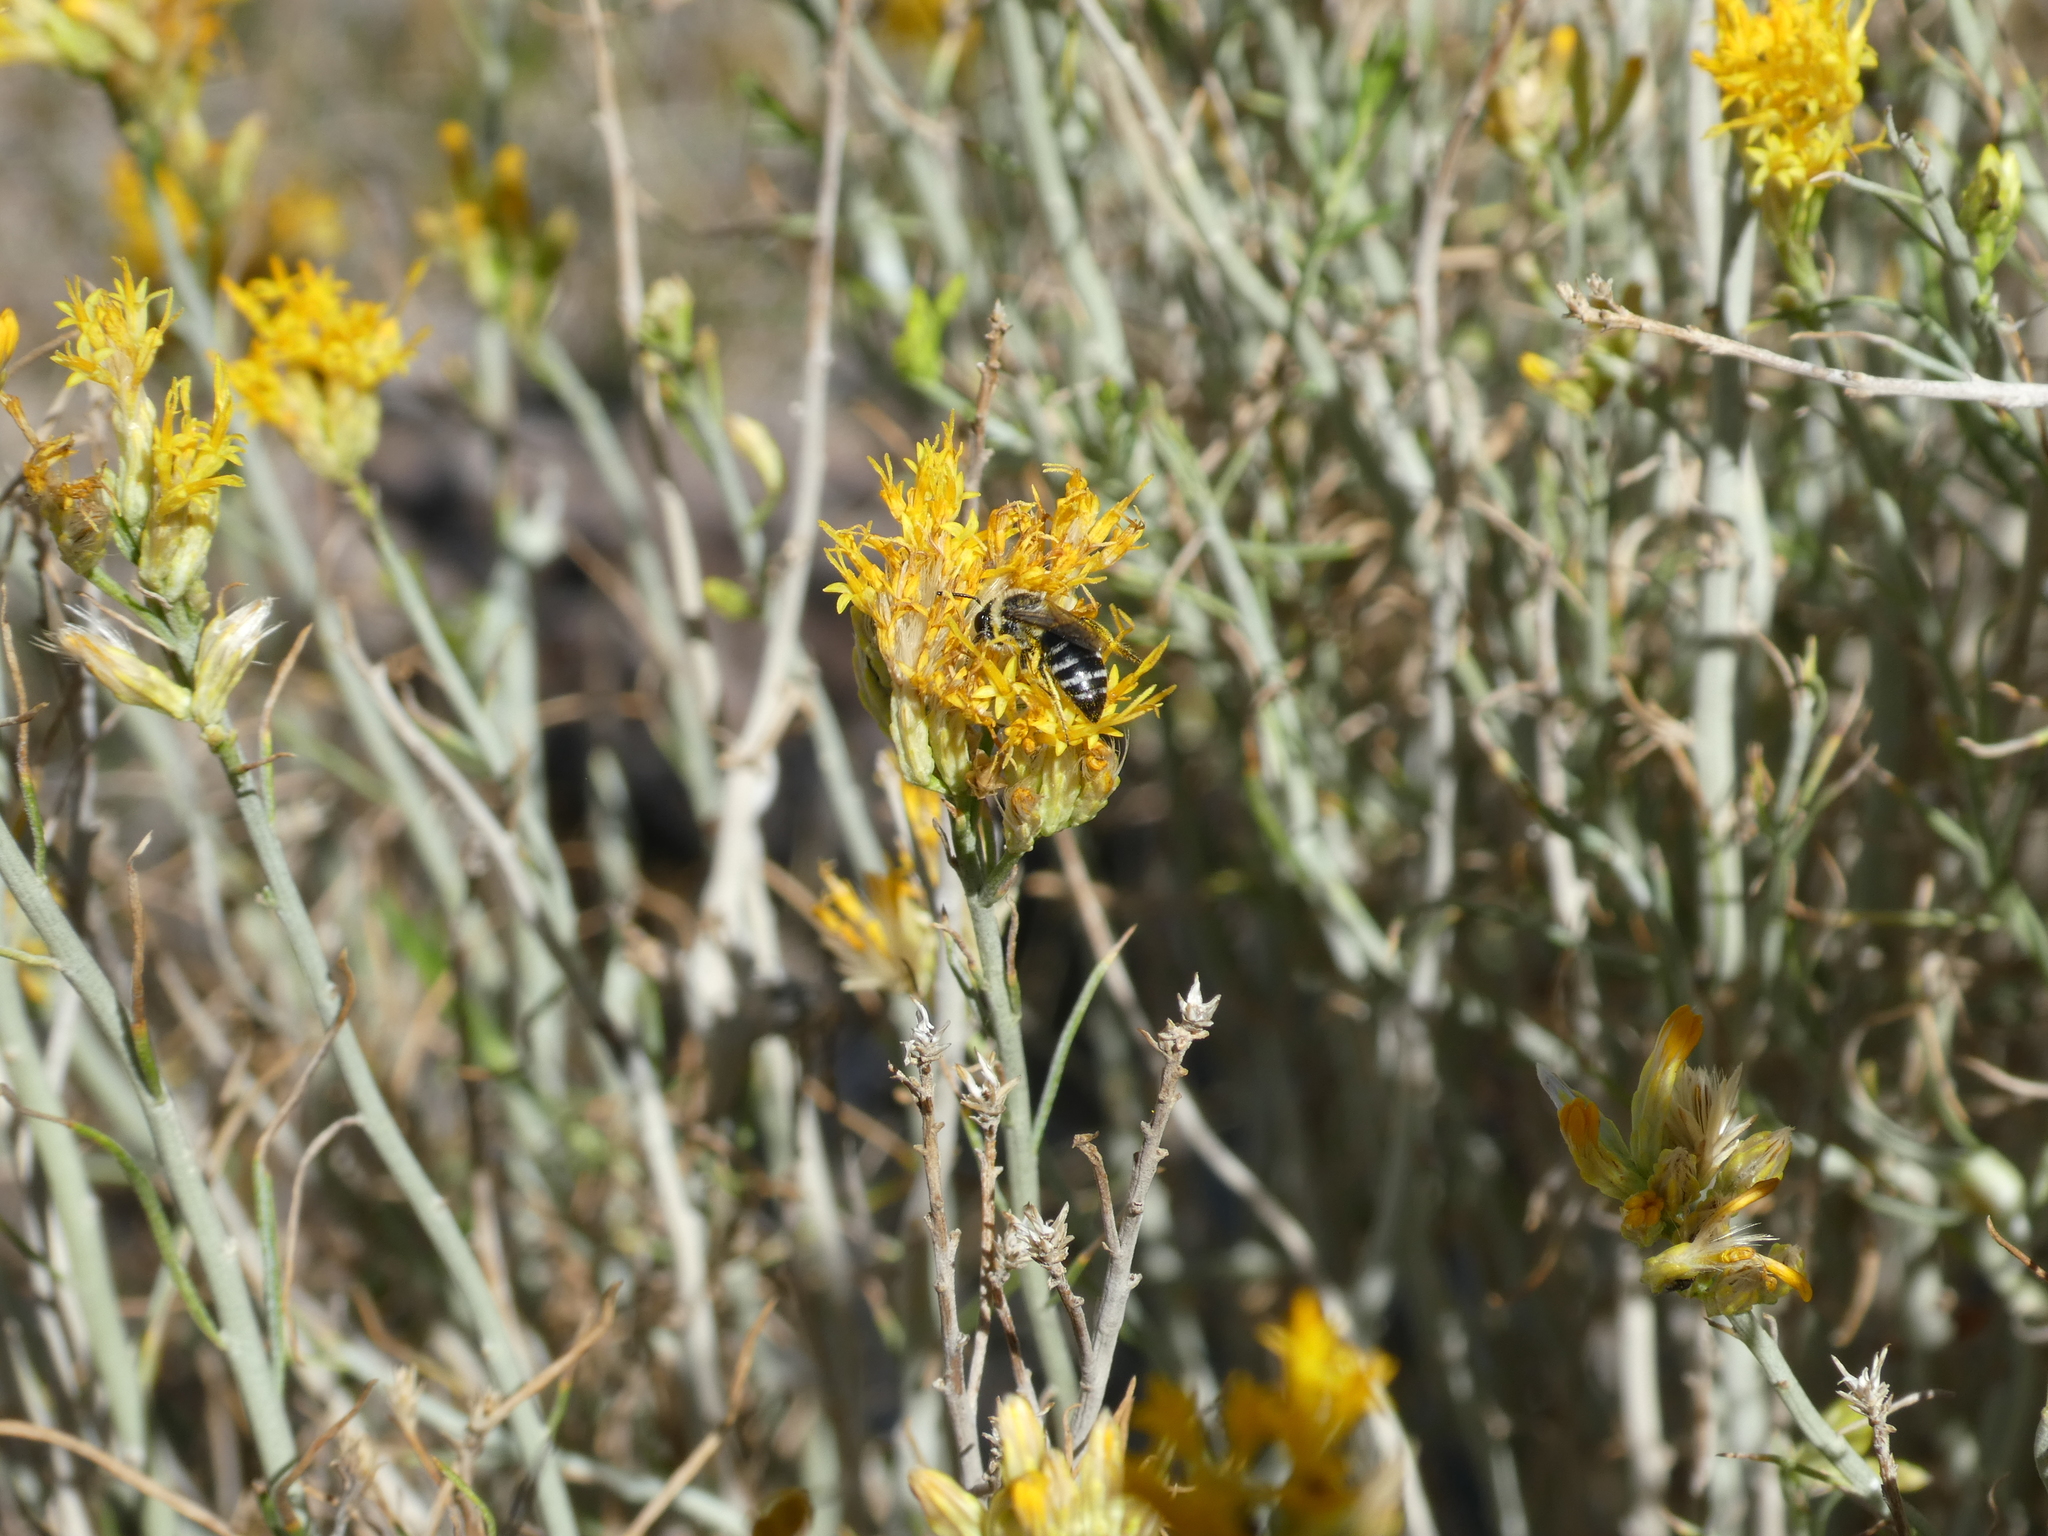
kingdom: Animalia
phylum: Arthropoda
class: Insecta
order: Hymenoptera
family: Colletidae
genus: Colletes
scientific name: Colletes
